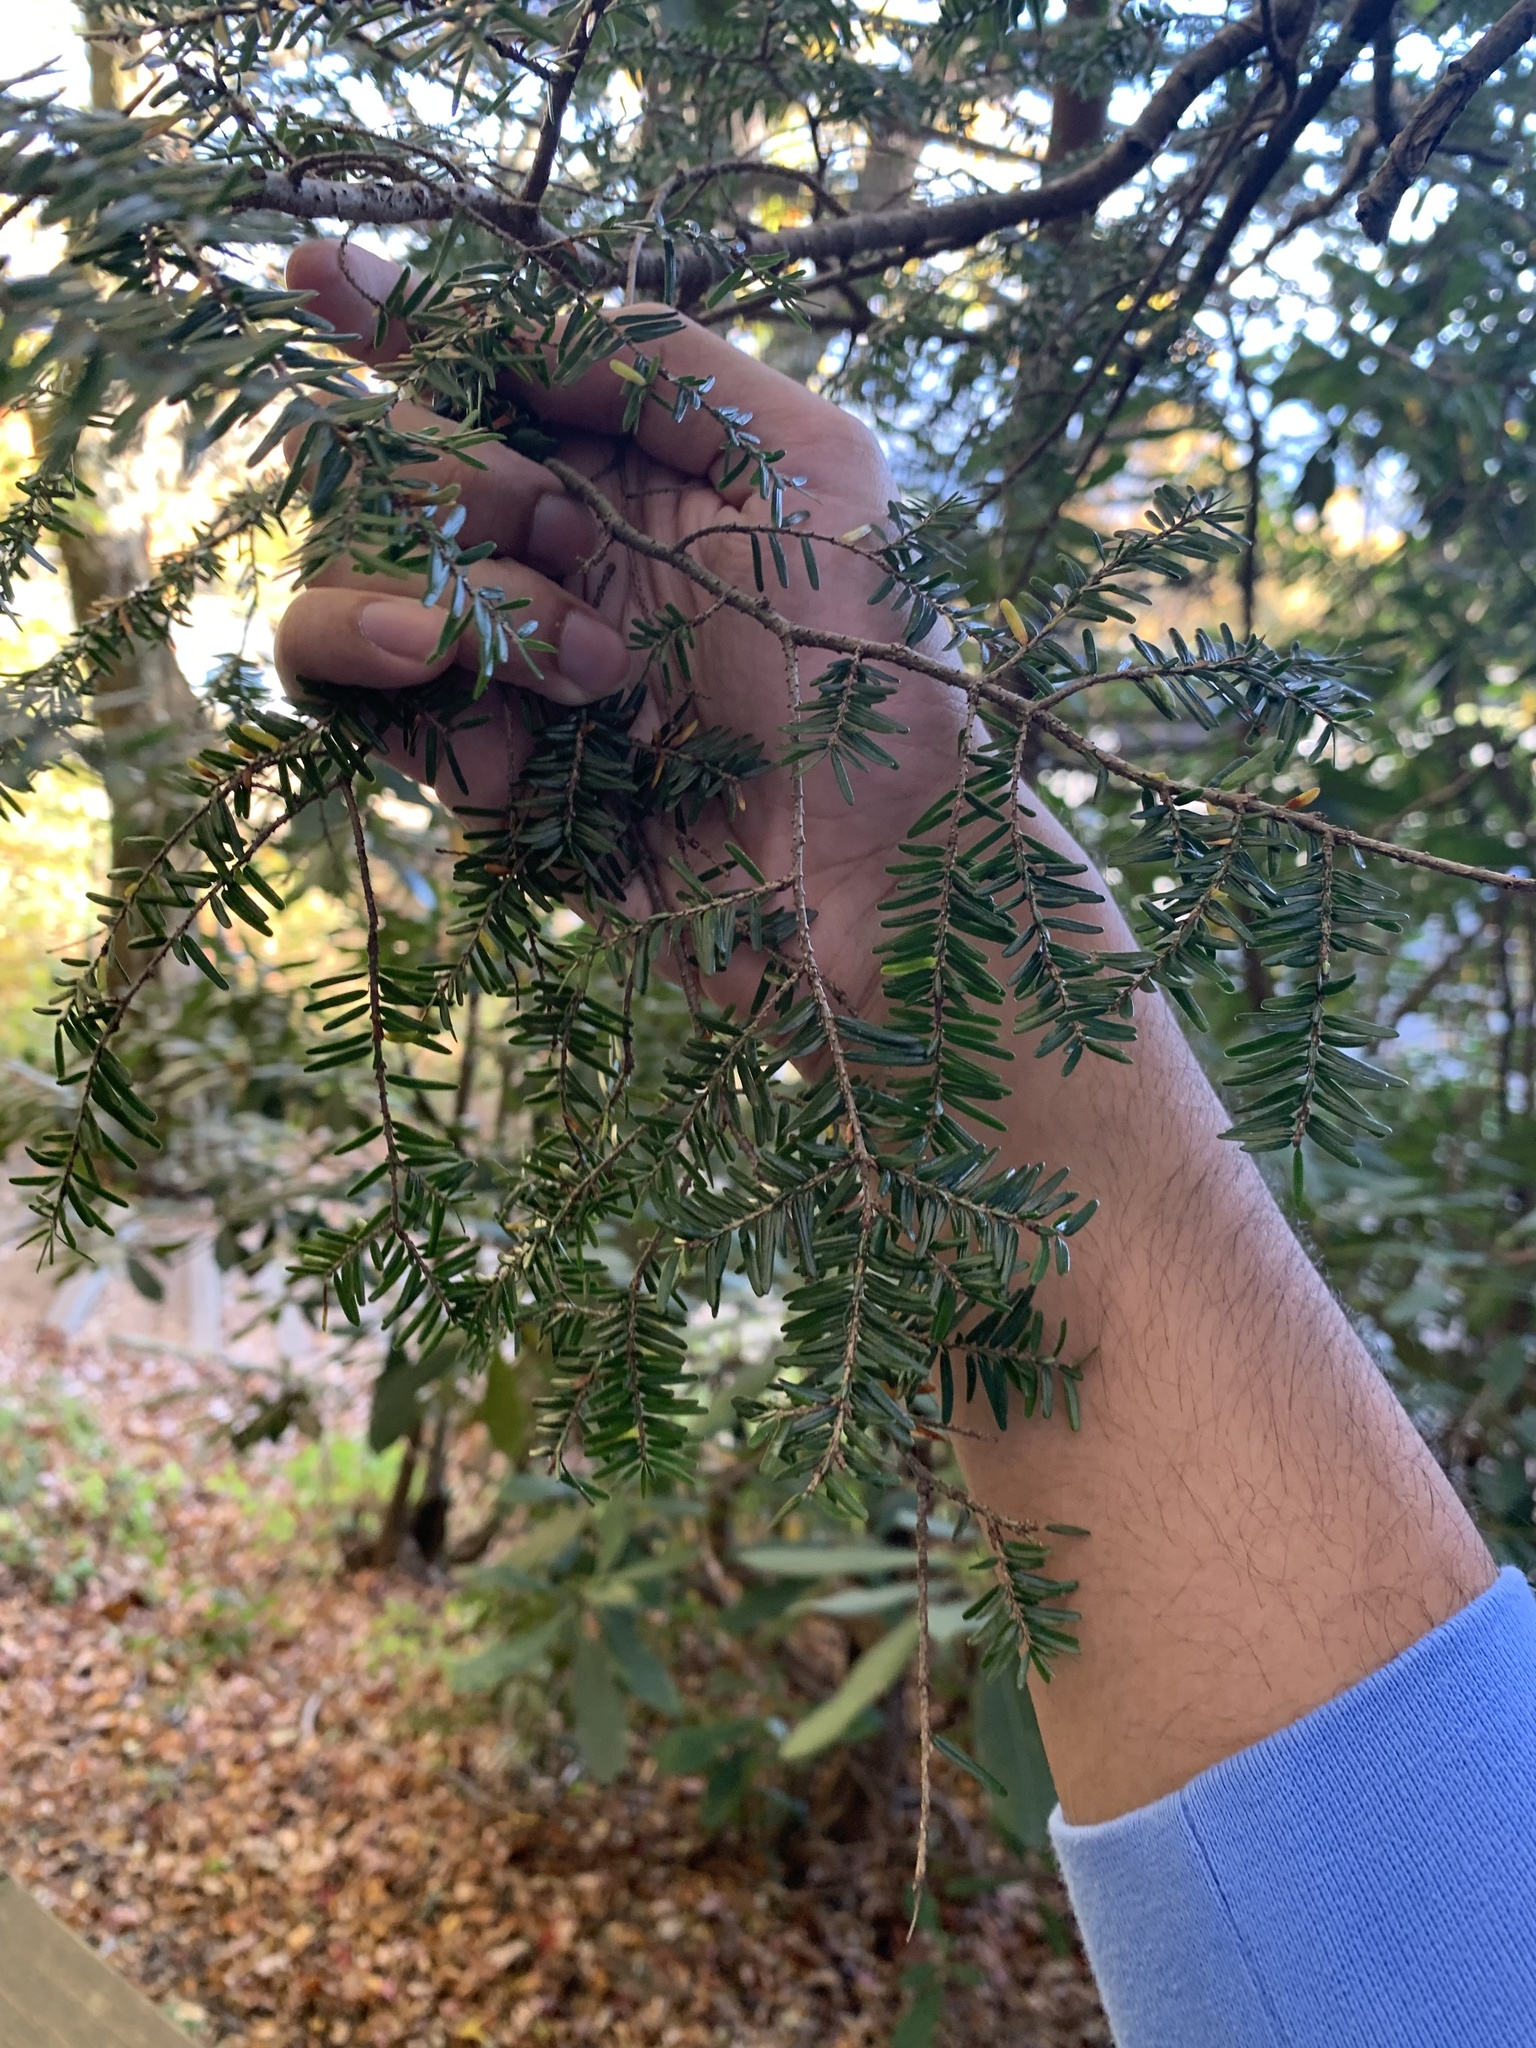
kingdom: Plantae
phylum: Tracheophyta
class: Pinopsida
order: Pinales
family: Pinaceae
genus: Tsuga
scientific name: Tsuga canadensis
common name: Eastern hemlock
